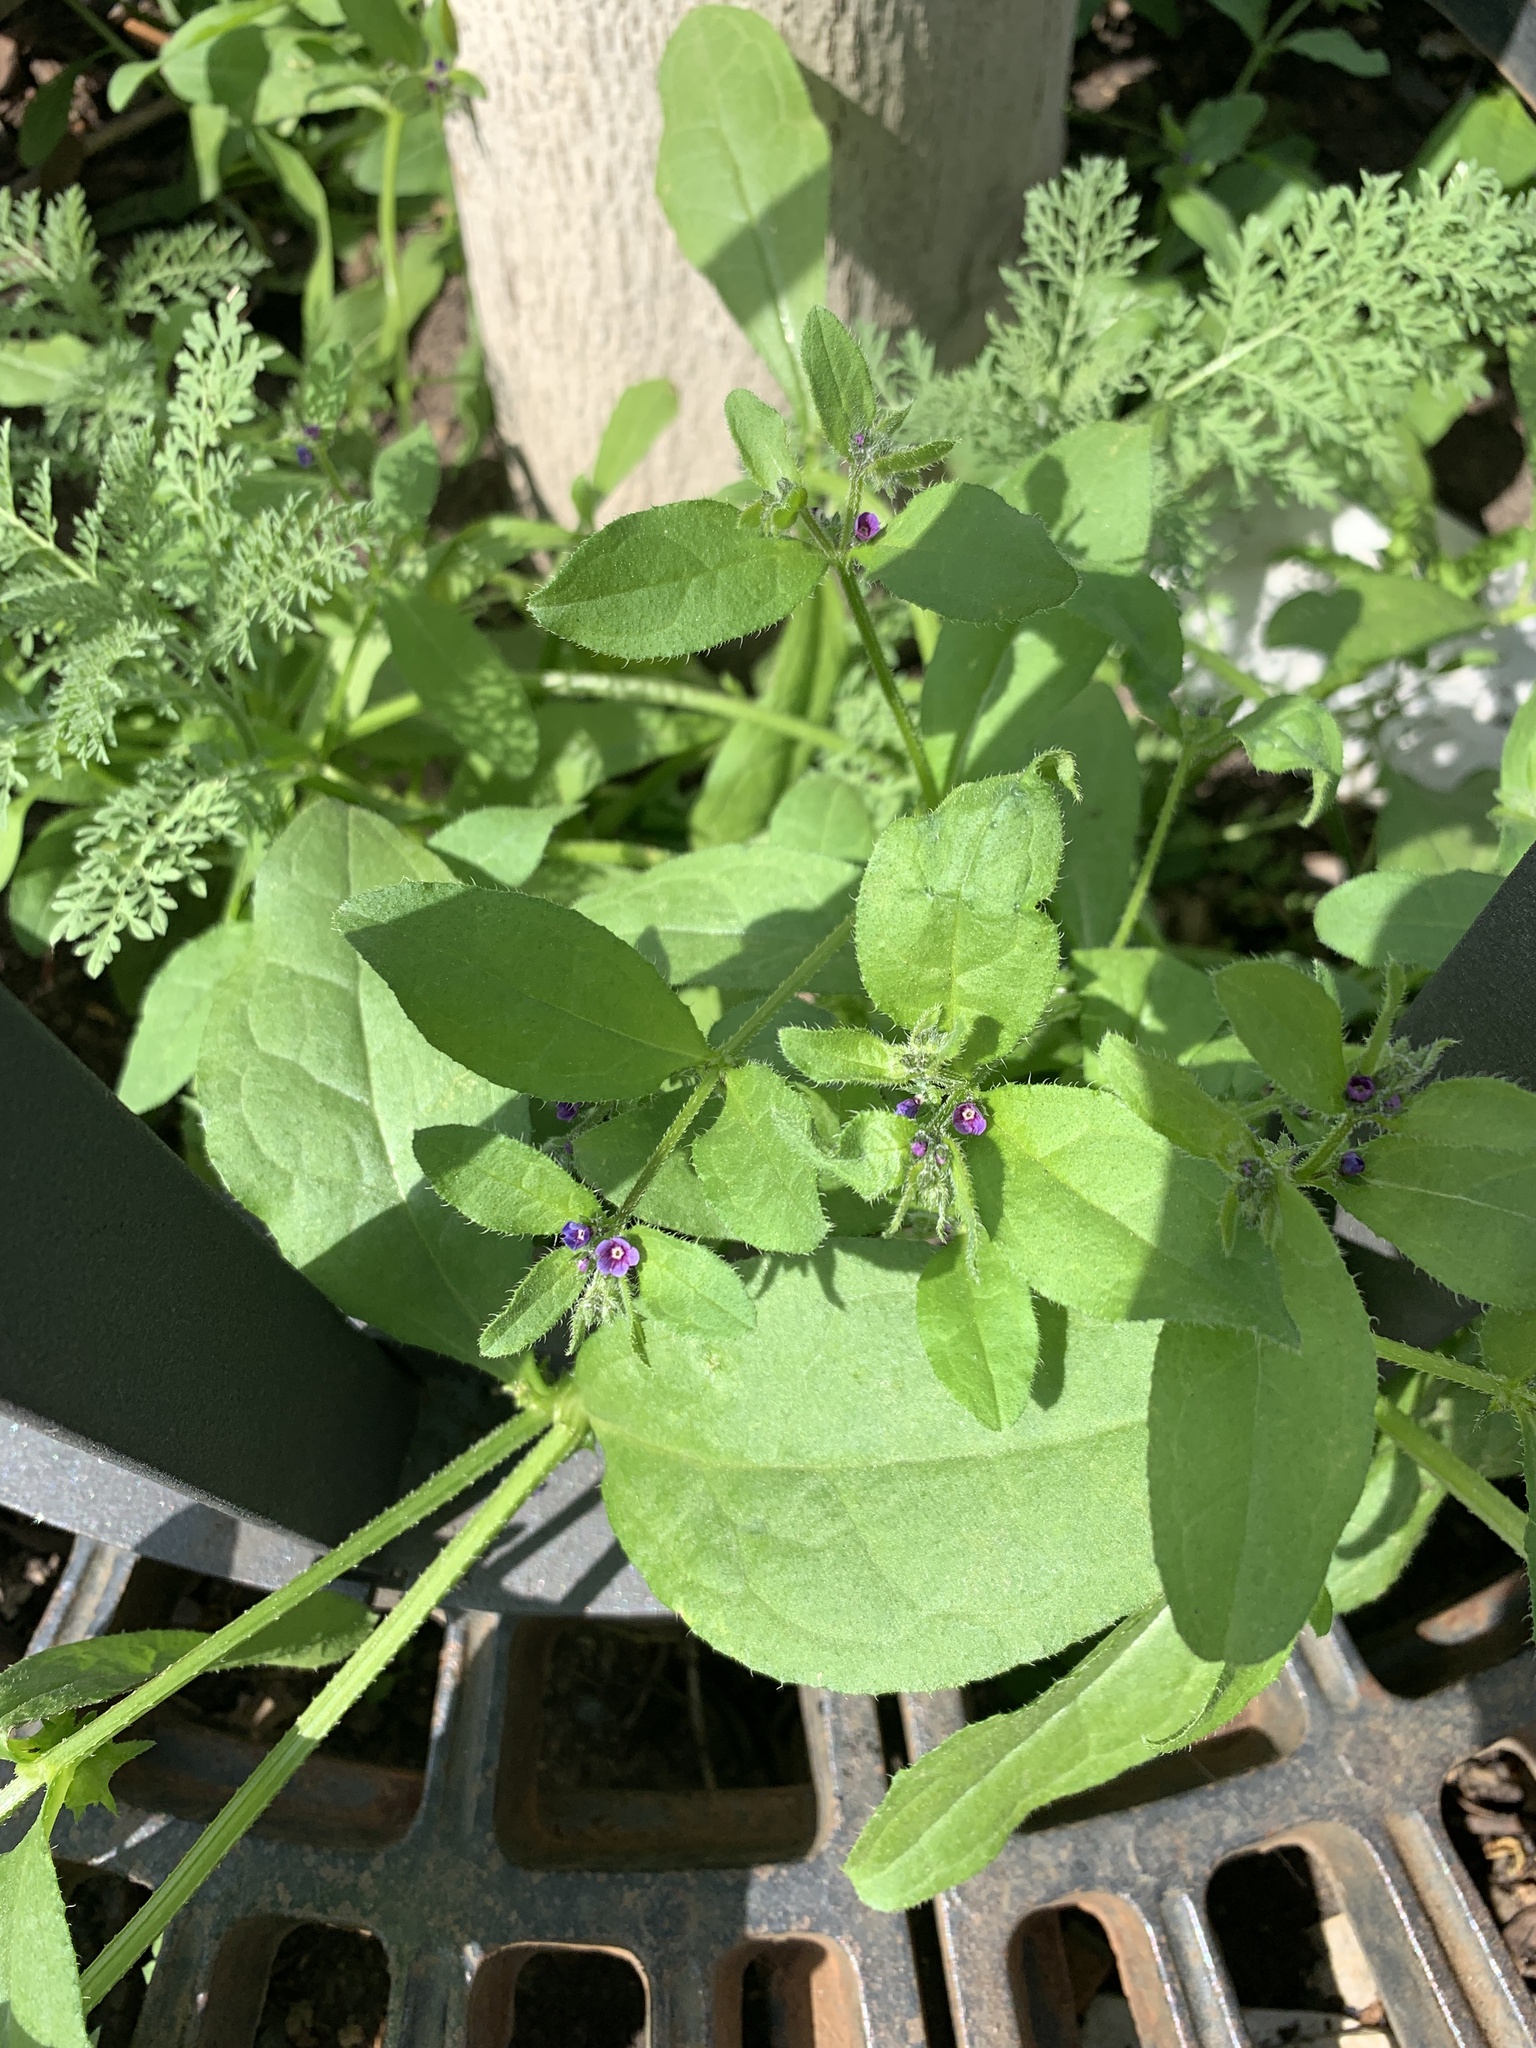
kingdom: Plantae
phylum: Tracheophyta
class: Magnoliopsida
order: Boraginales
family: Boraginaceae
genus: Asperugo
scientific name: Asperugo procumbens
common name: Madwort
